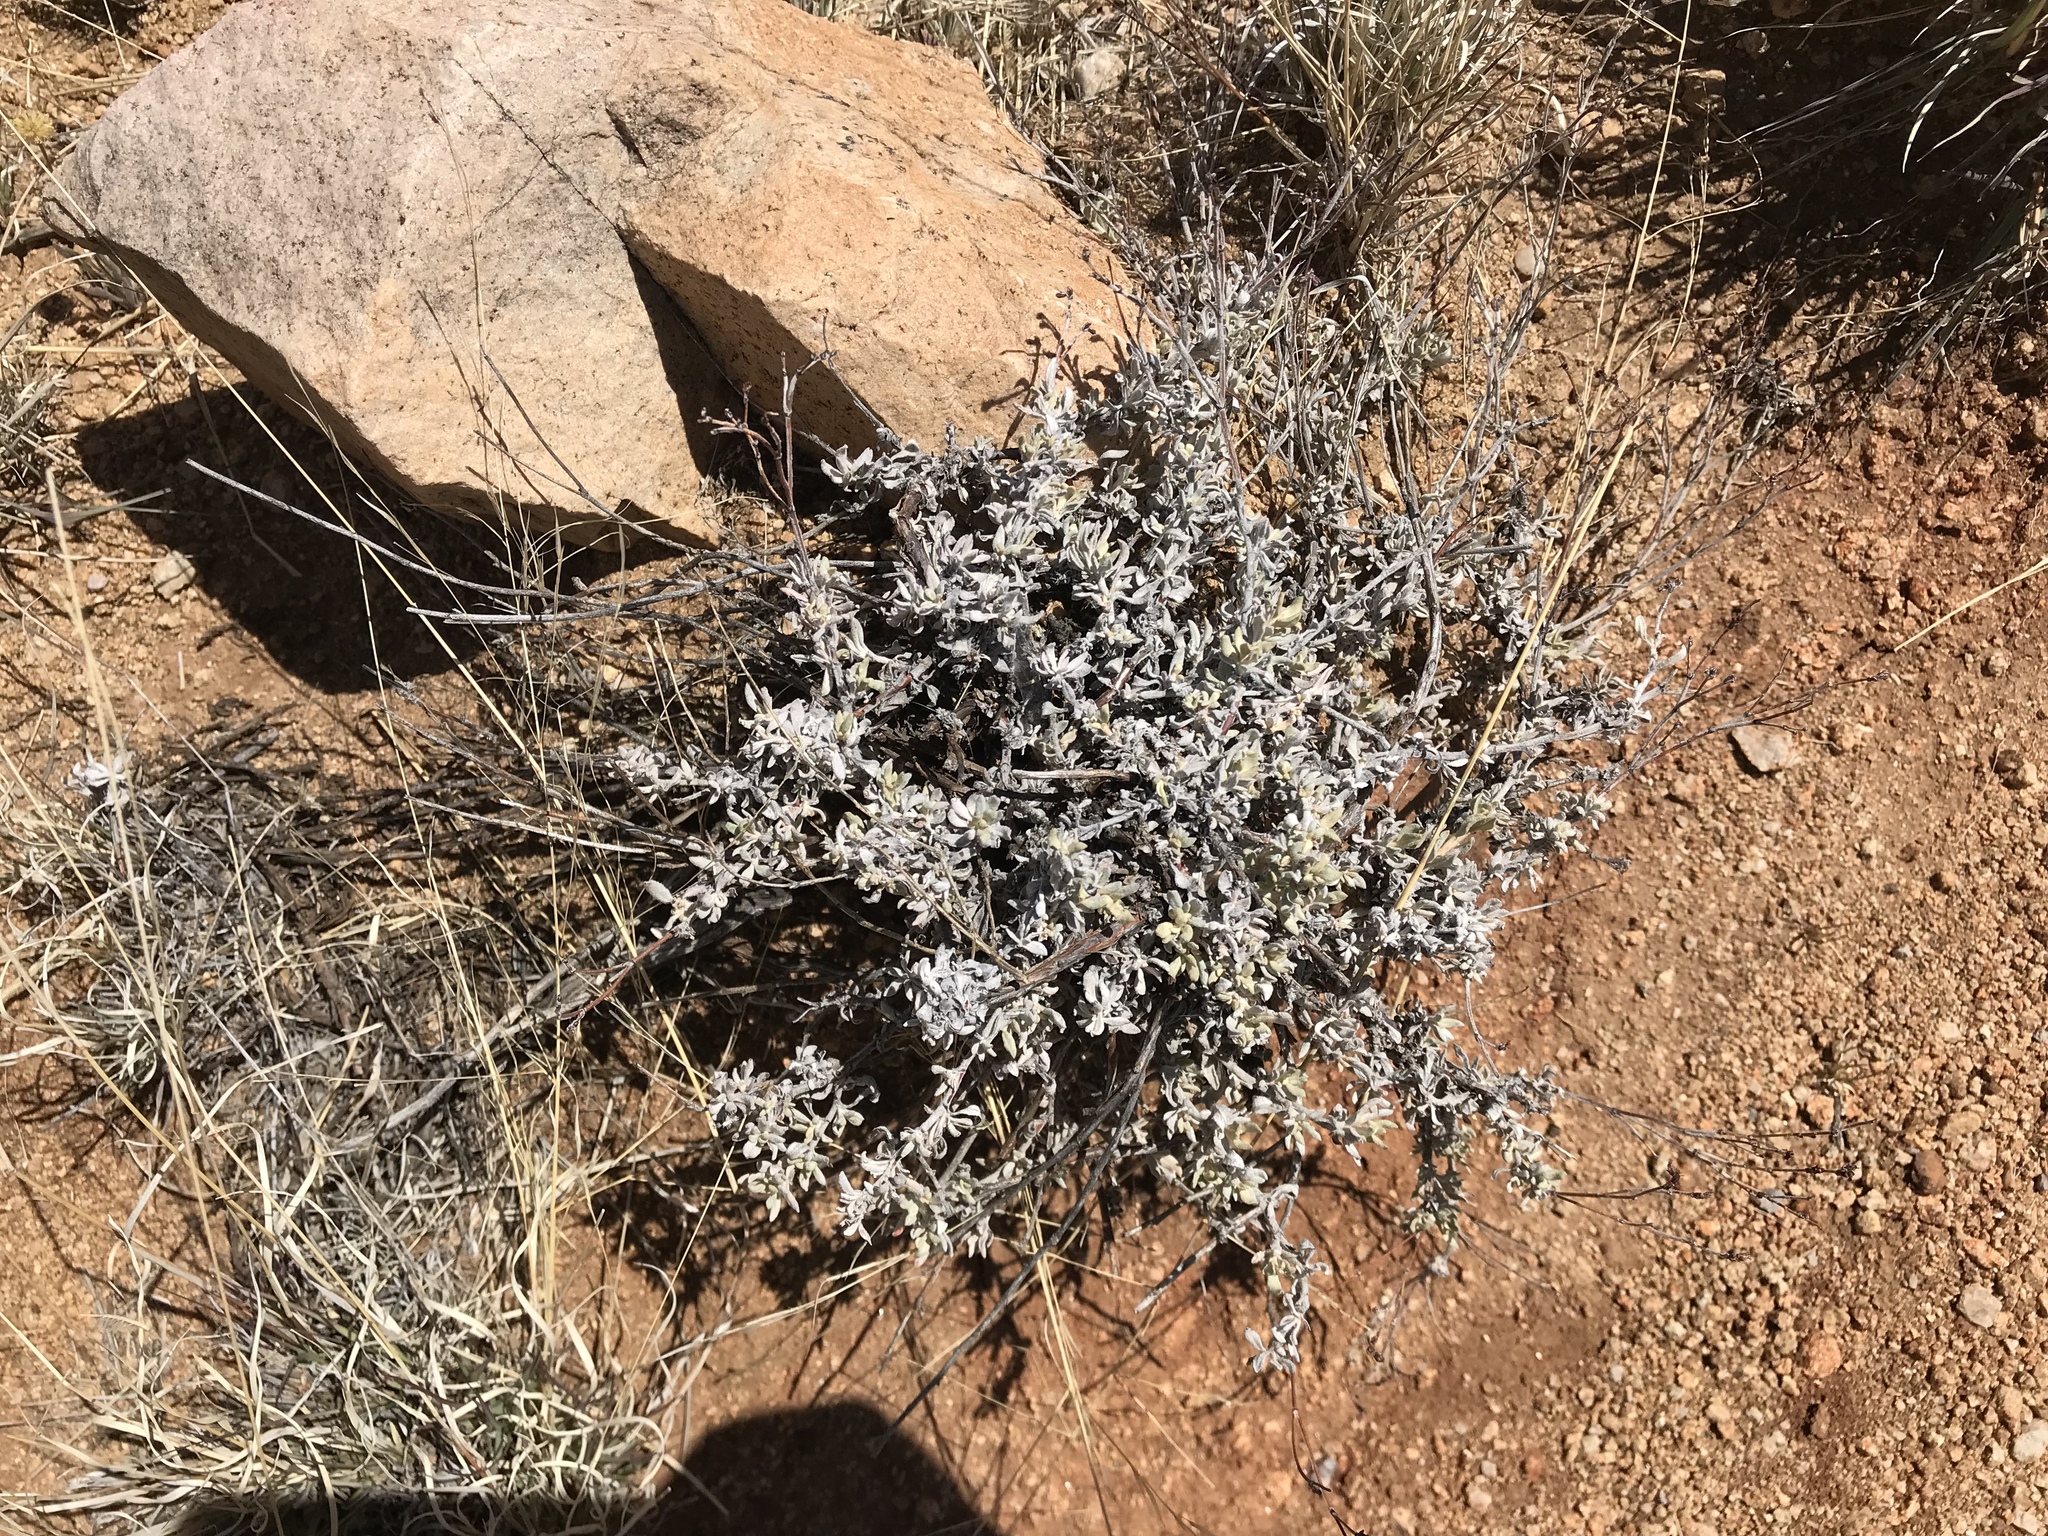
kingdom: Plantae
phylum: Tracheophyta
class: Magnoliopsida
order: Caryophyllales
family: Polygonaceae
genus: Eriogonum
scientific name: Eriogonum wrightii
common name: Bastard-sage
